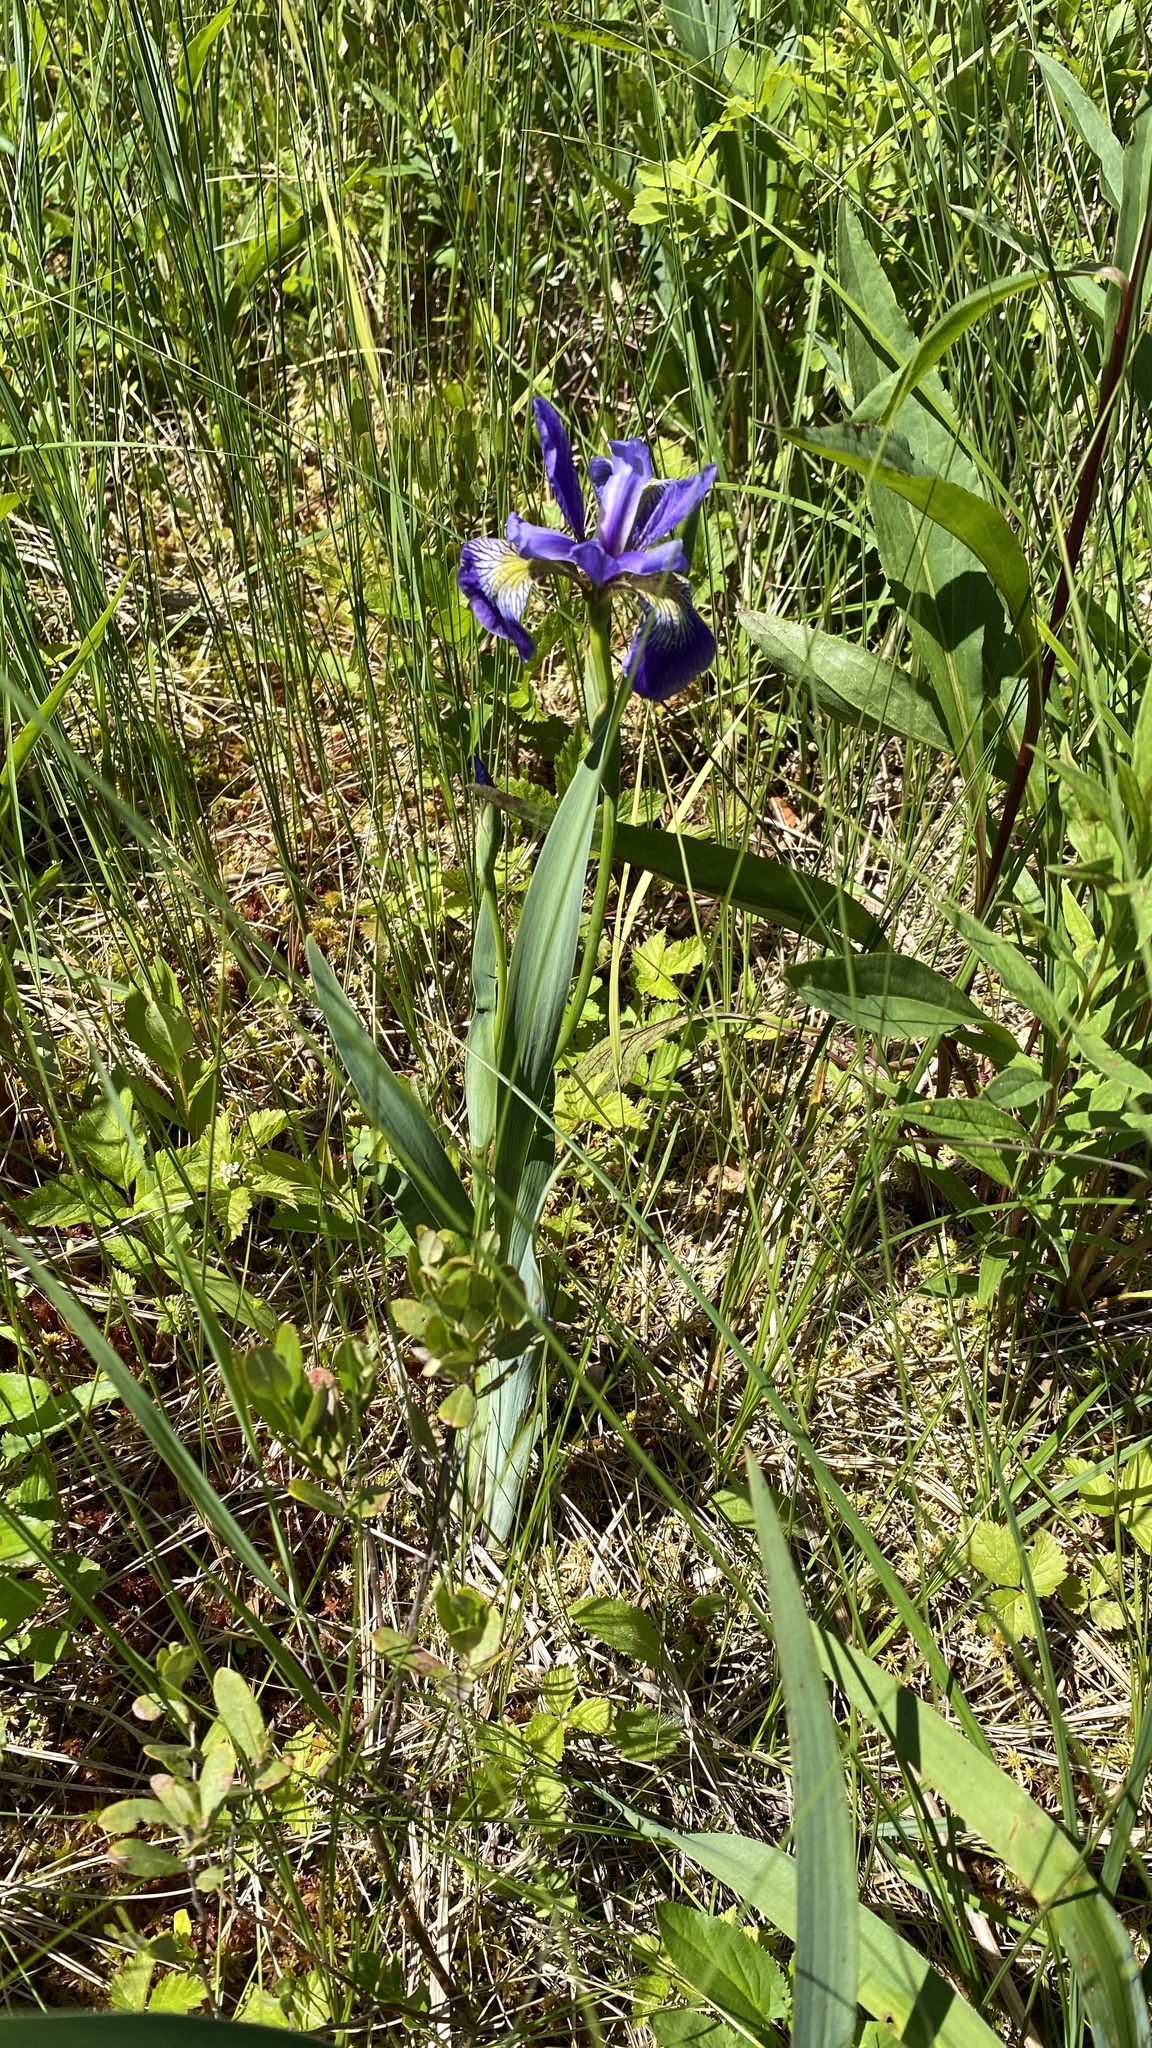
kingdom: Plantae
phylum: Tracheophyta
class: Liliopsida
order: Asparagales
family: Iridaceae
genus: Iris
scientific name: Iris versicolor
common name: Purple iris
